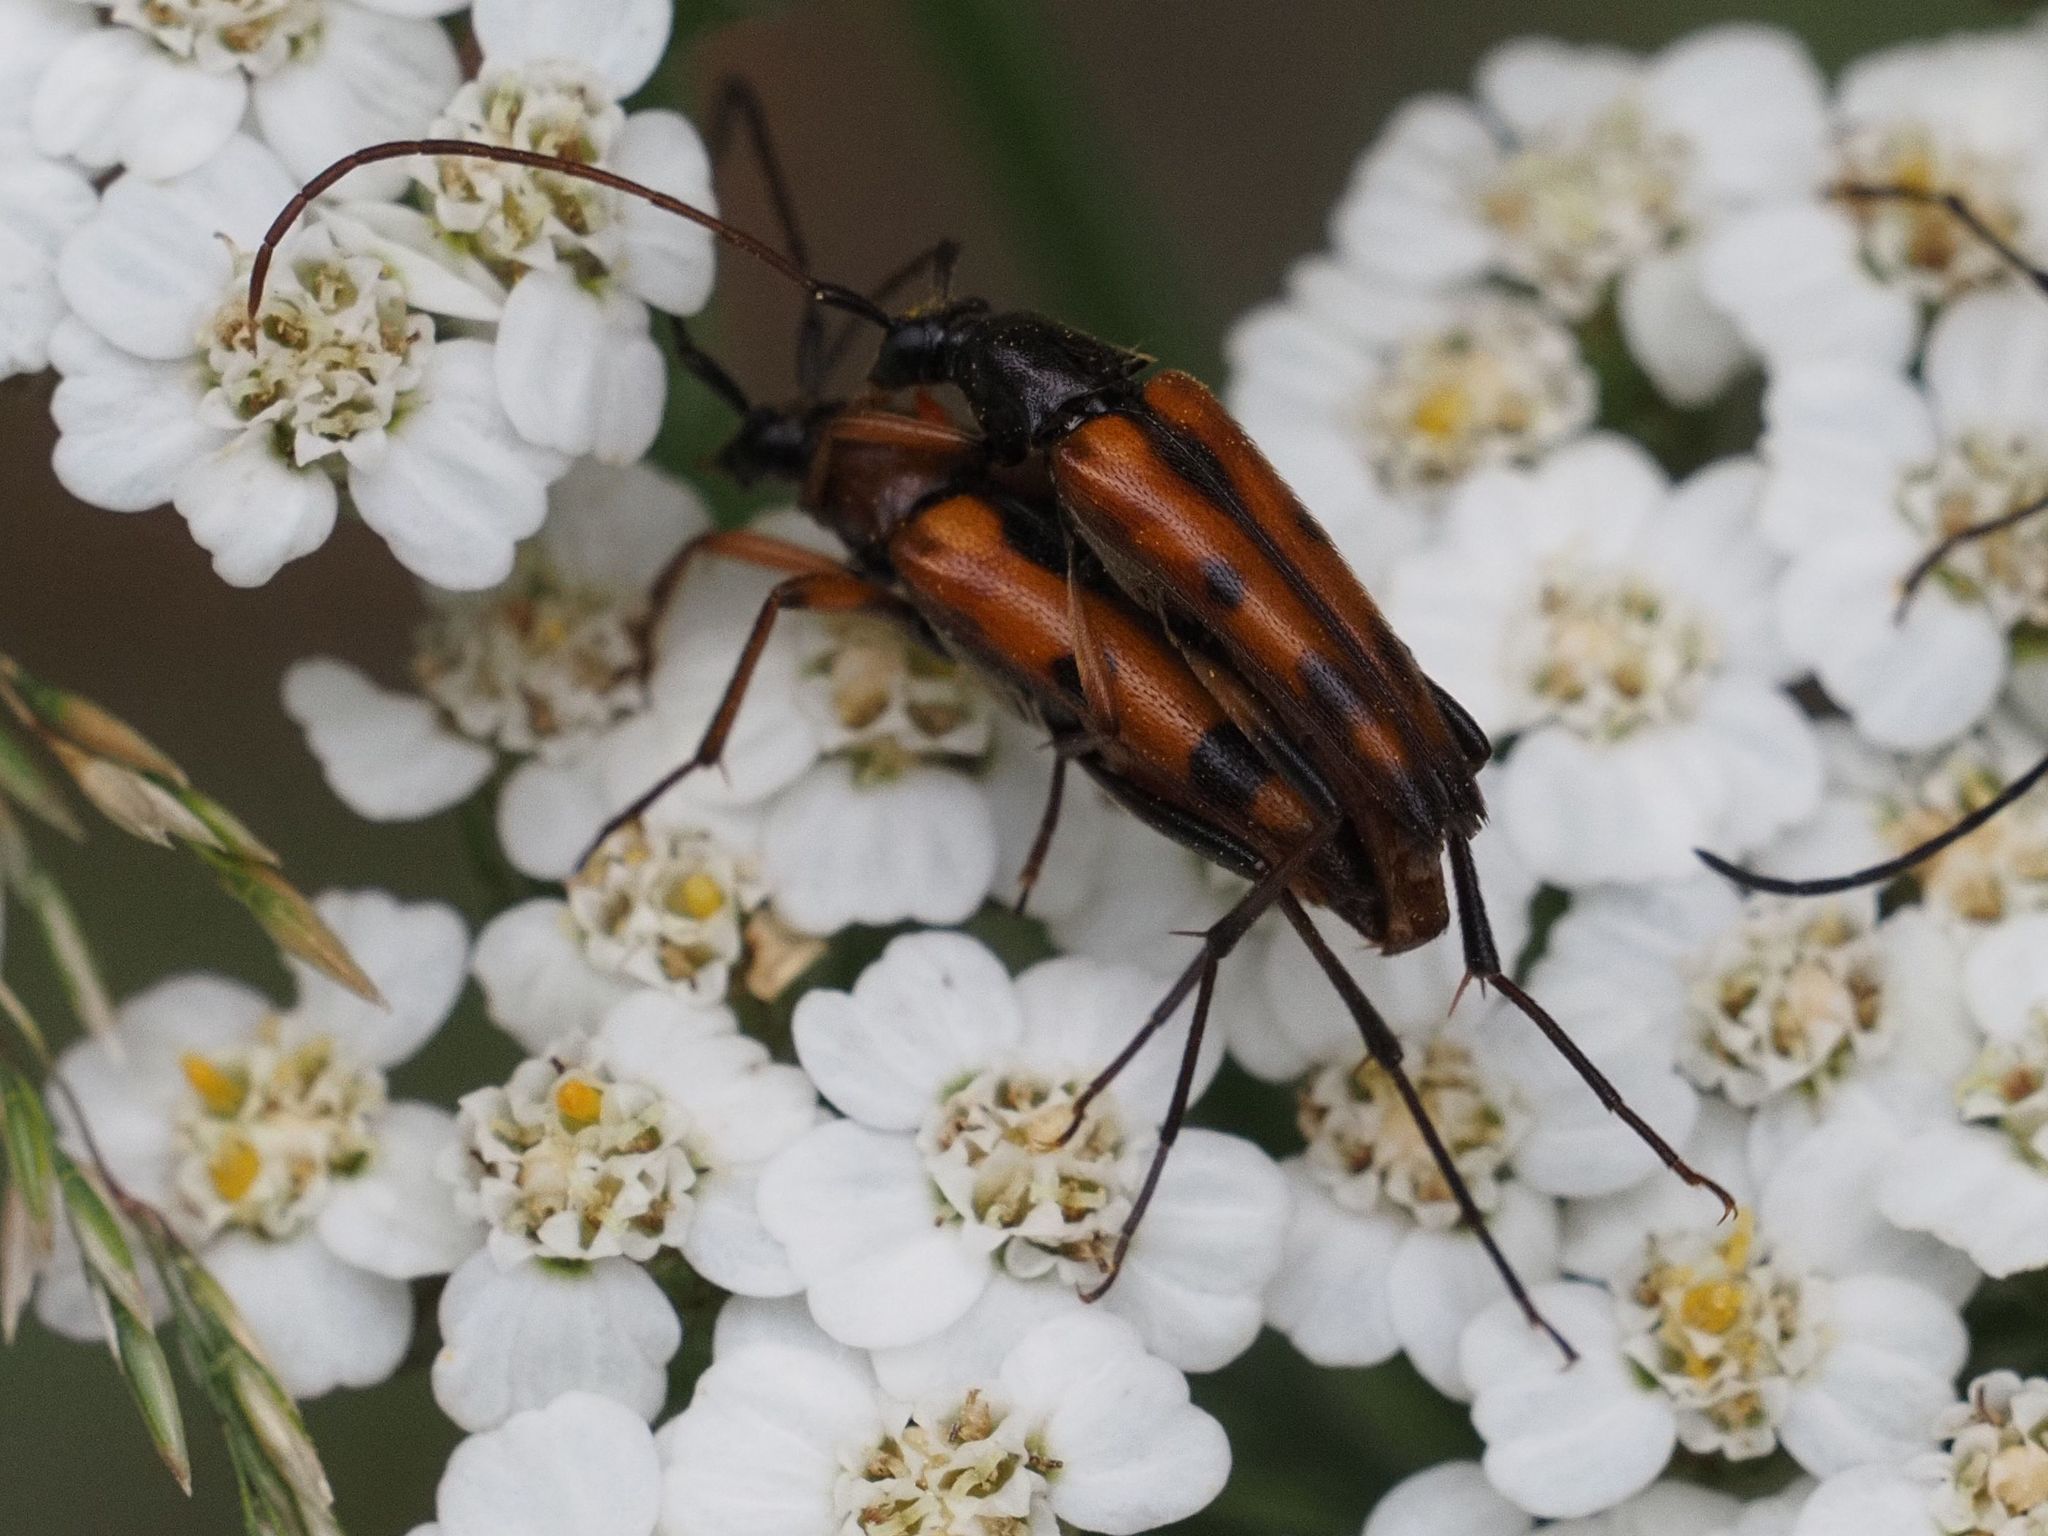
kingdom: Animalia
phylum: Arthropoda
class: Insecta
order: Coleoptera
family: Cerambycidae
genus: Stenurella
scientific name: Stenurella septempunctata
